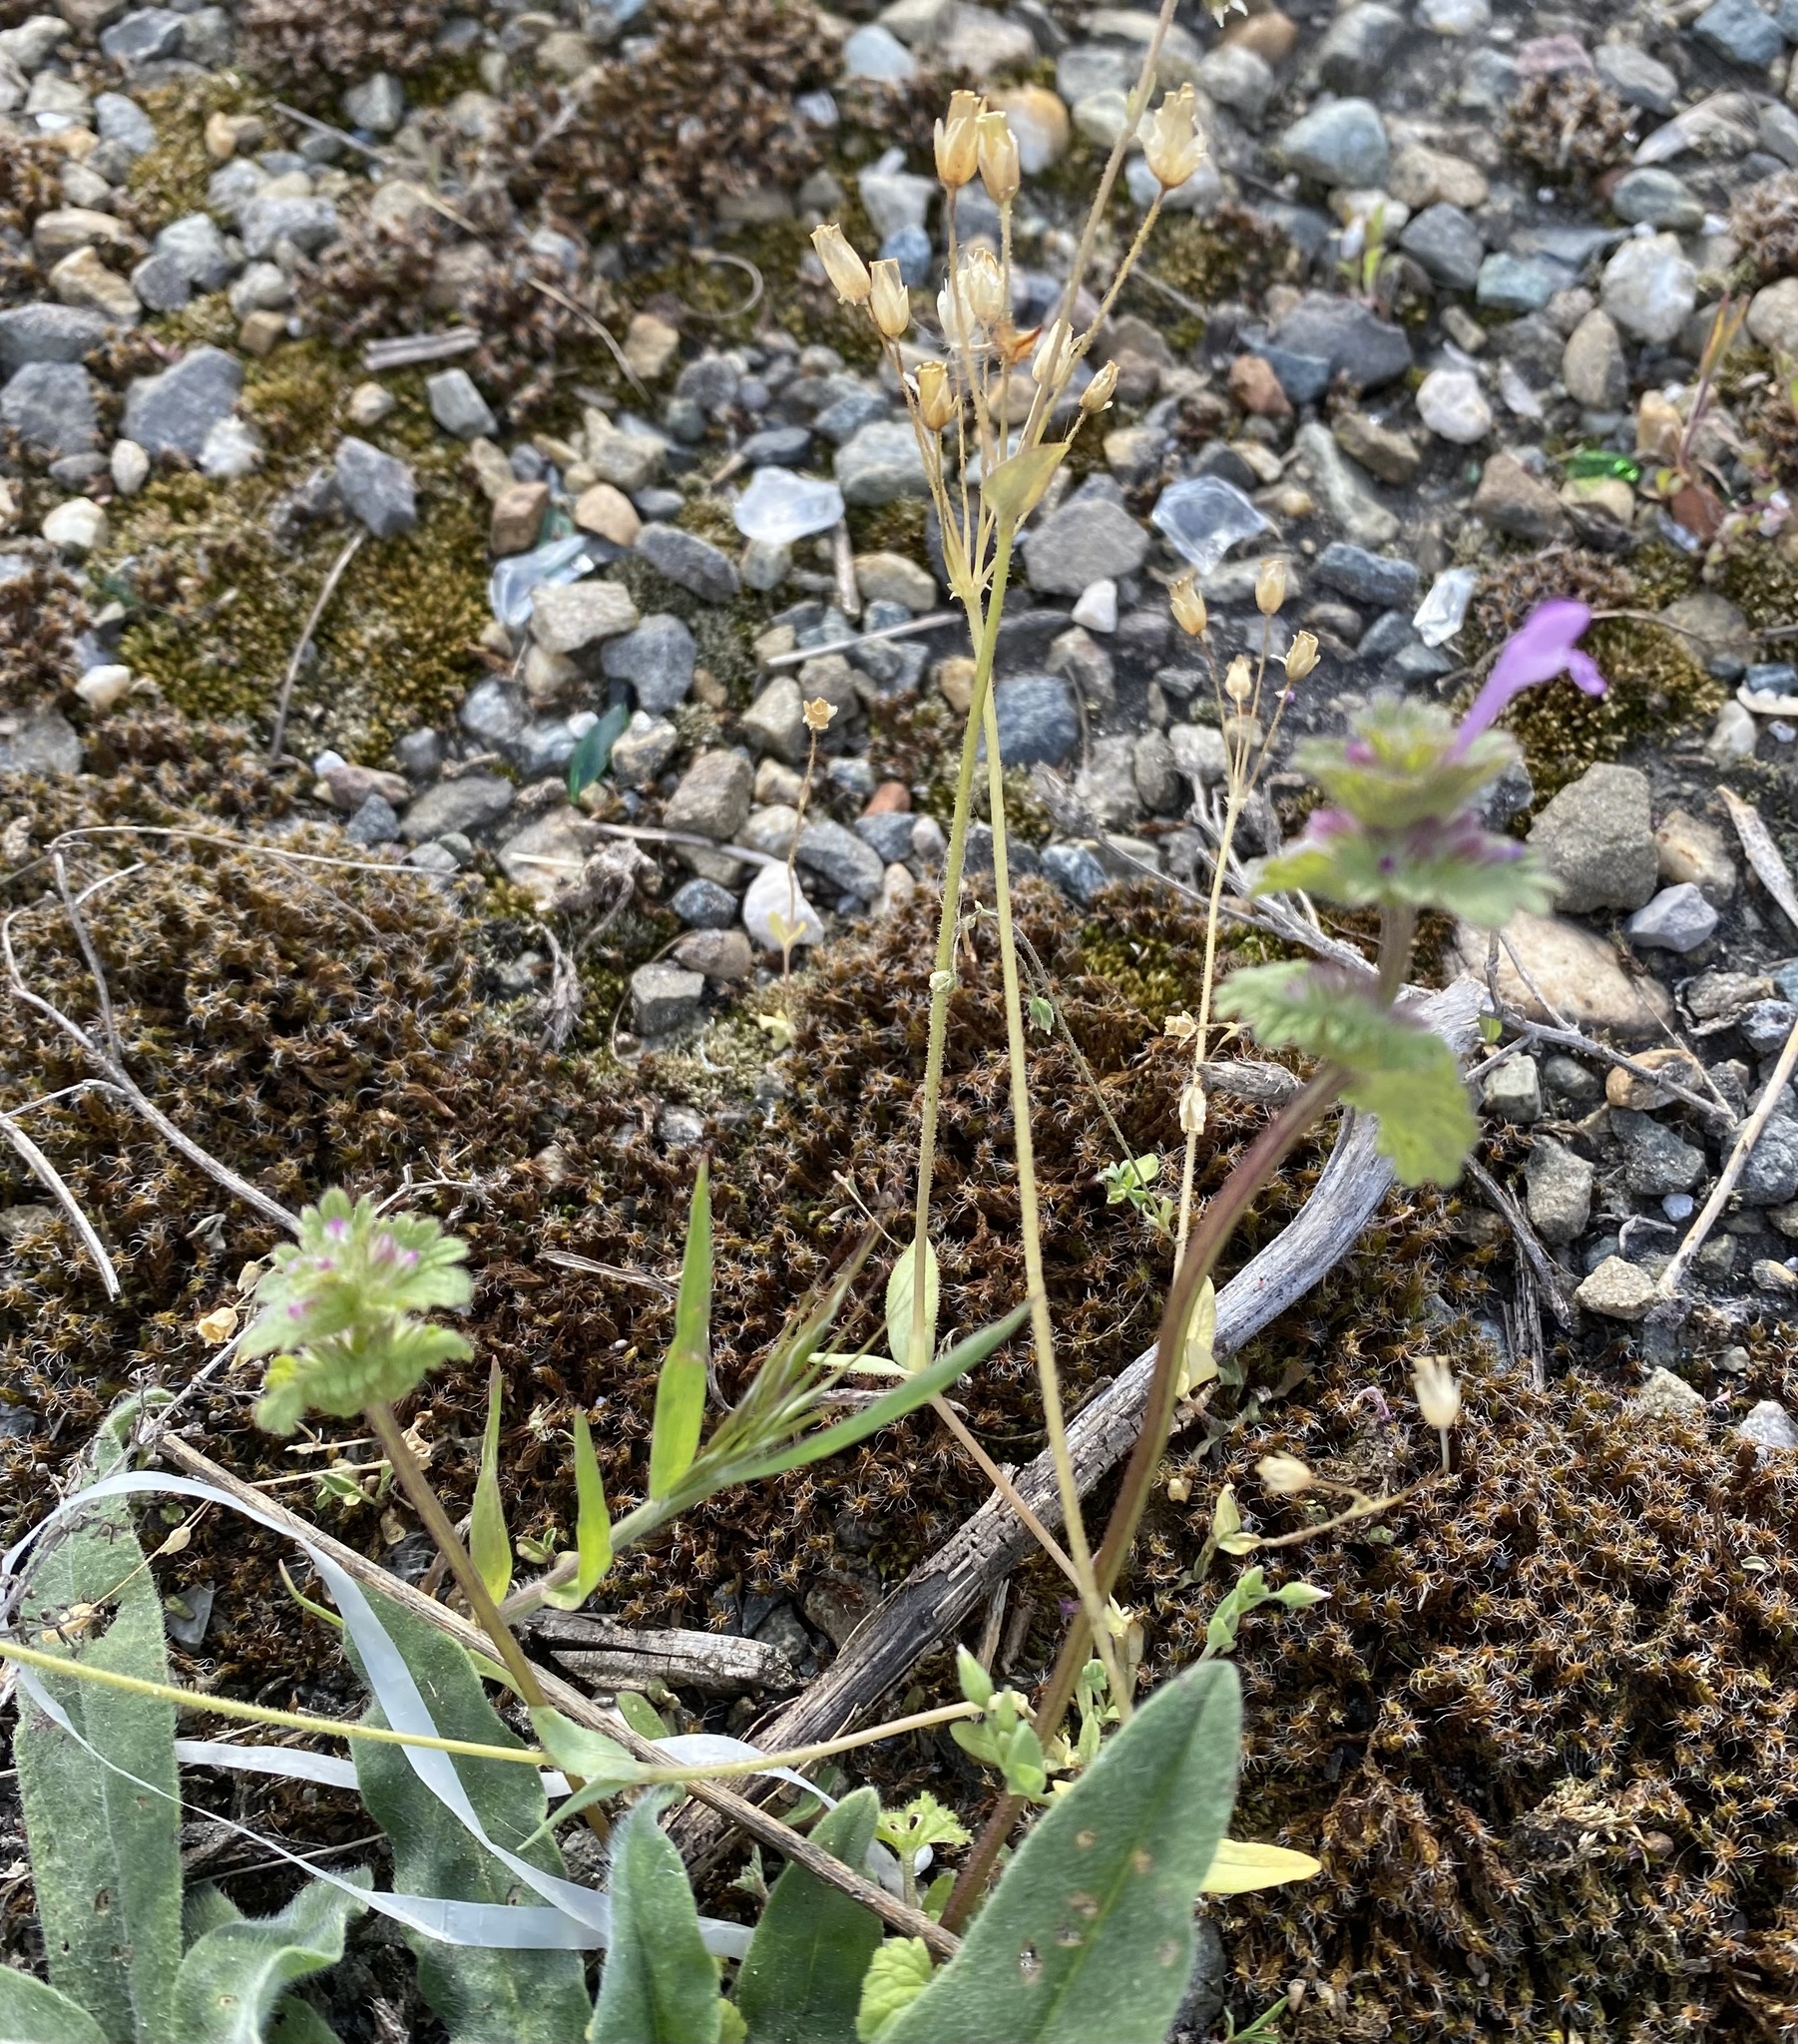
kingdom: Plantae
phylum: Tracheophyta
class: Magnoliopsida
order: Lamiales
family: Lamiaceae
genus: Lamium
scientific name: Lamium amplexicaule
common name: Henbit dead-nettle
